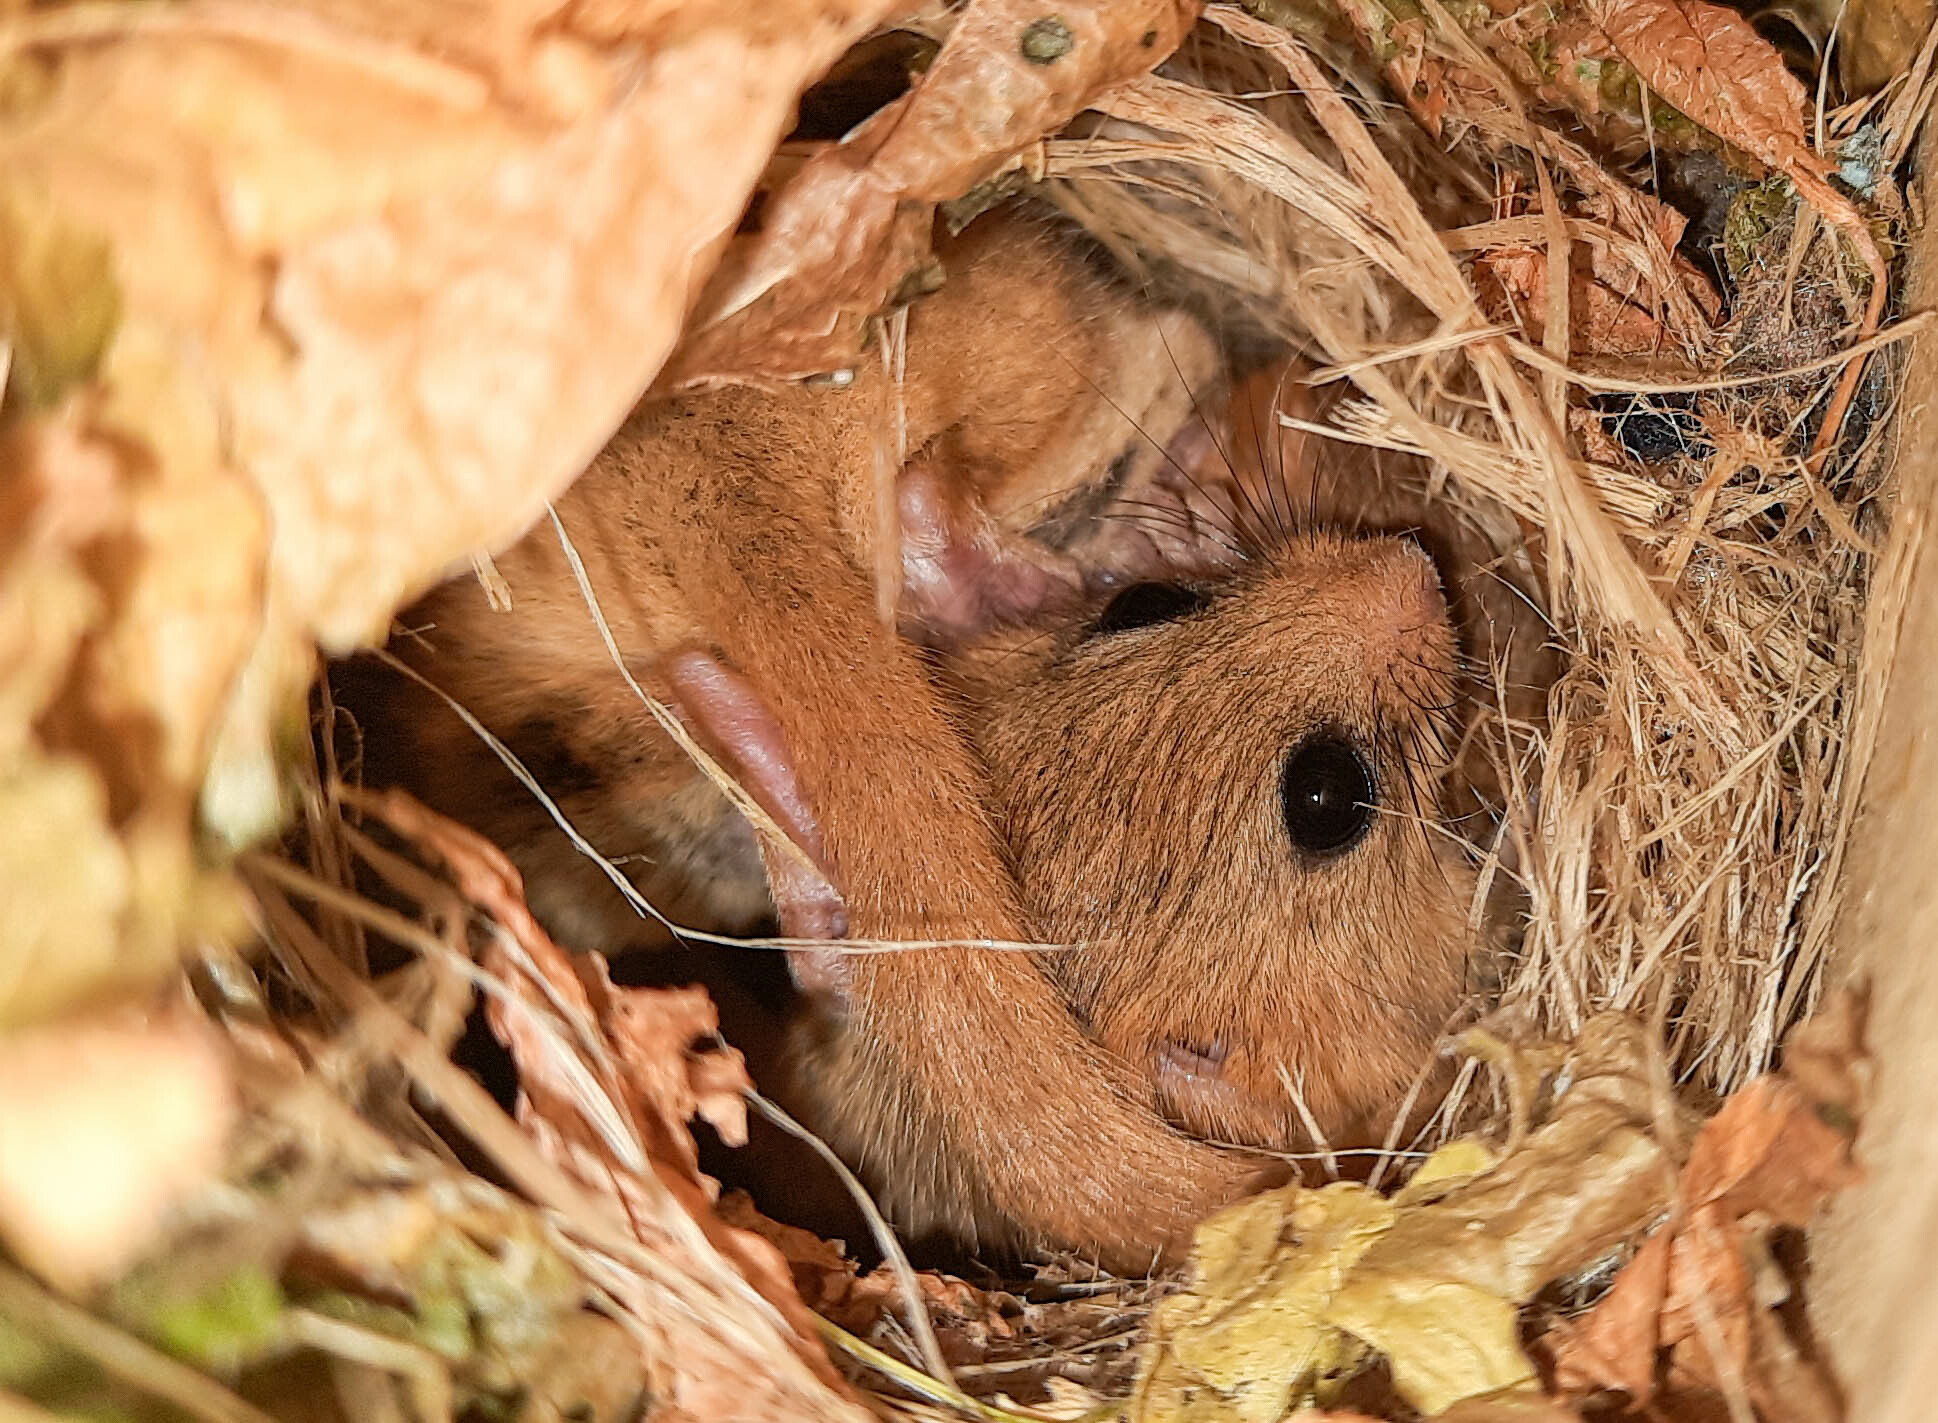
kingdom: Animalia
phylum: Chordata
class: Mammalia
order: Rodentia
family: Gliridae
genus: Muscardinus
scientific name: Muscardinus avellanarius
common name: Hazel dormouse
